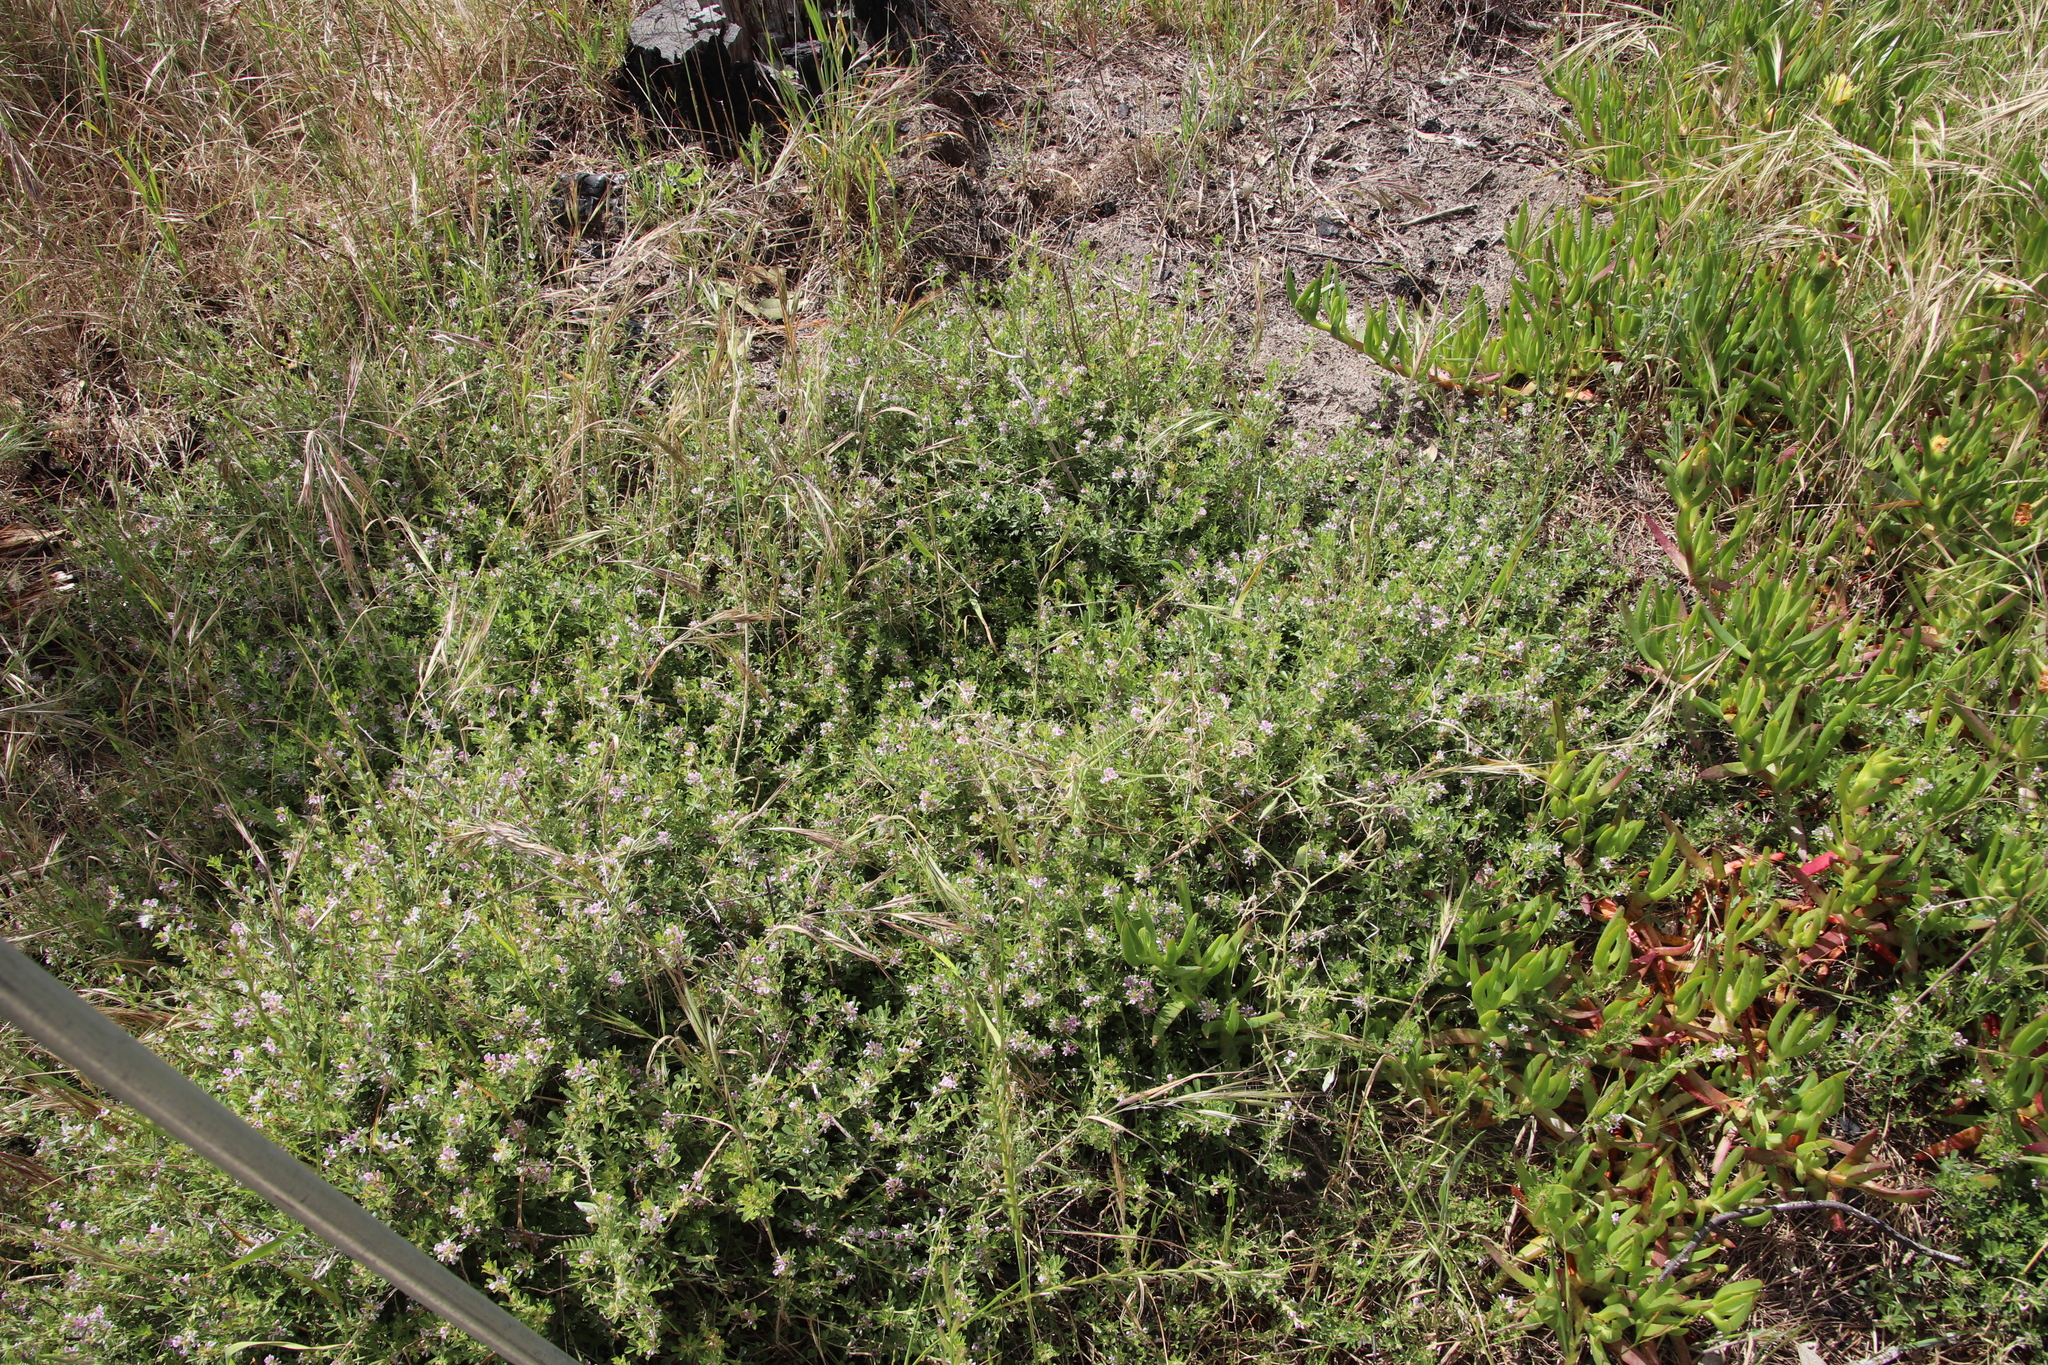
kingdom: Plantae
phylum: Tracheophyta
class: Magnoliopsida
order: Fabales
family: Fabaceae
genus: Psoralea
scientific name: Psoralea
